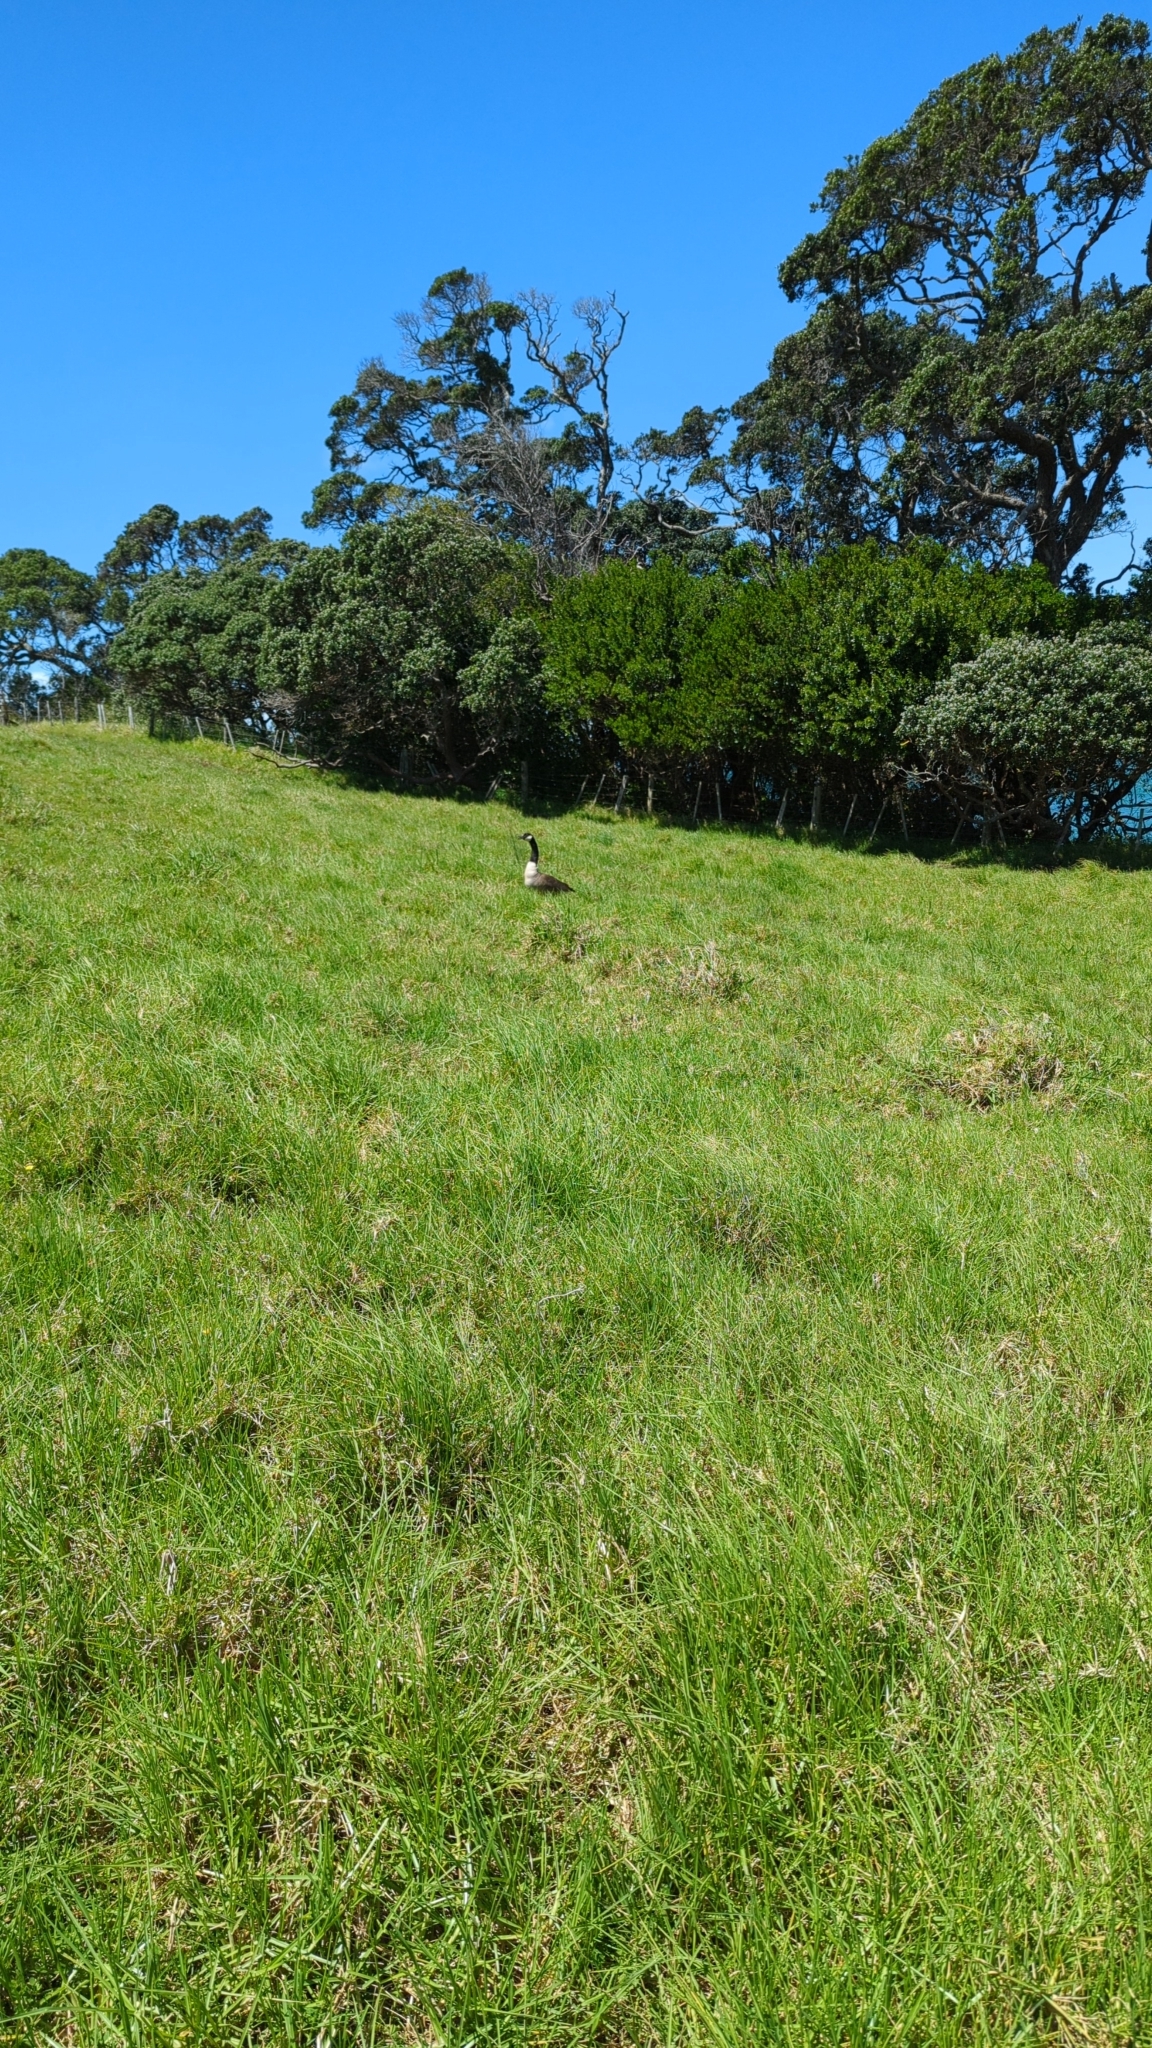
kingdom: Animalia
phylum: Chordata
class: Aves
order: Anseriformes
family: Anatidae
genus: Branta
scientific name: Branta canadensis
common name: Canada goose
